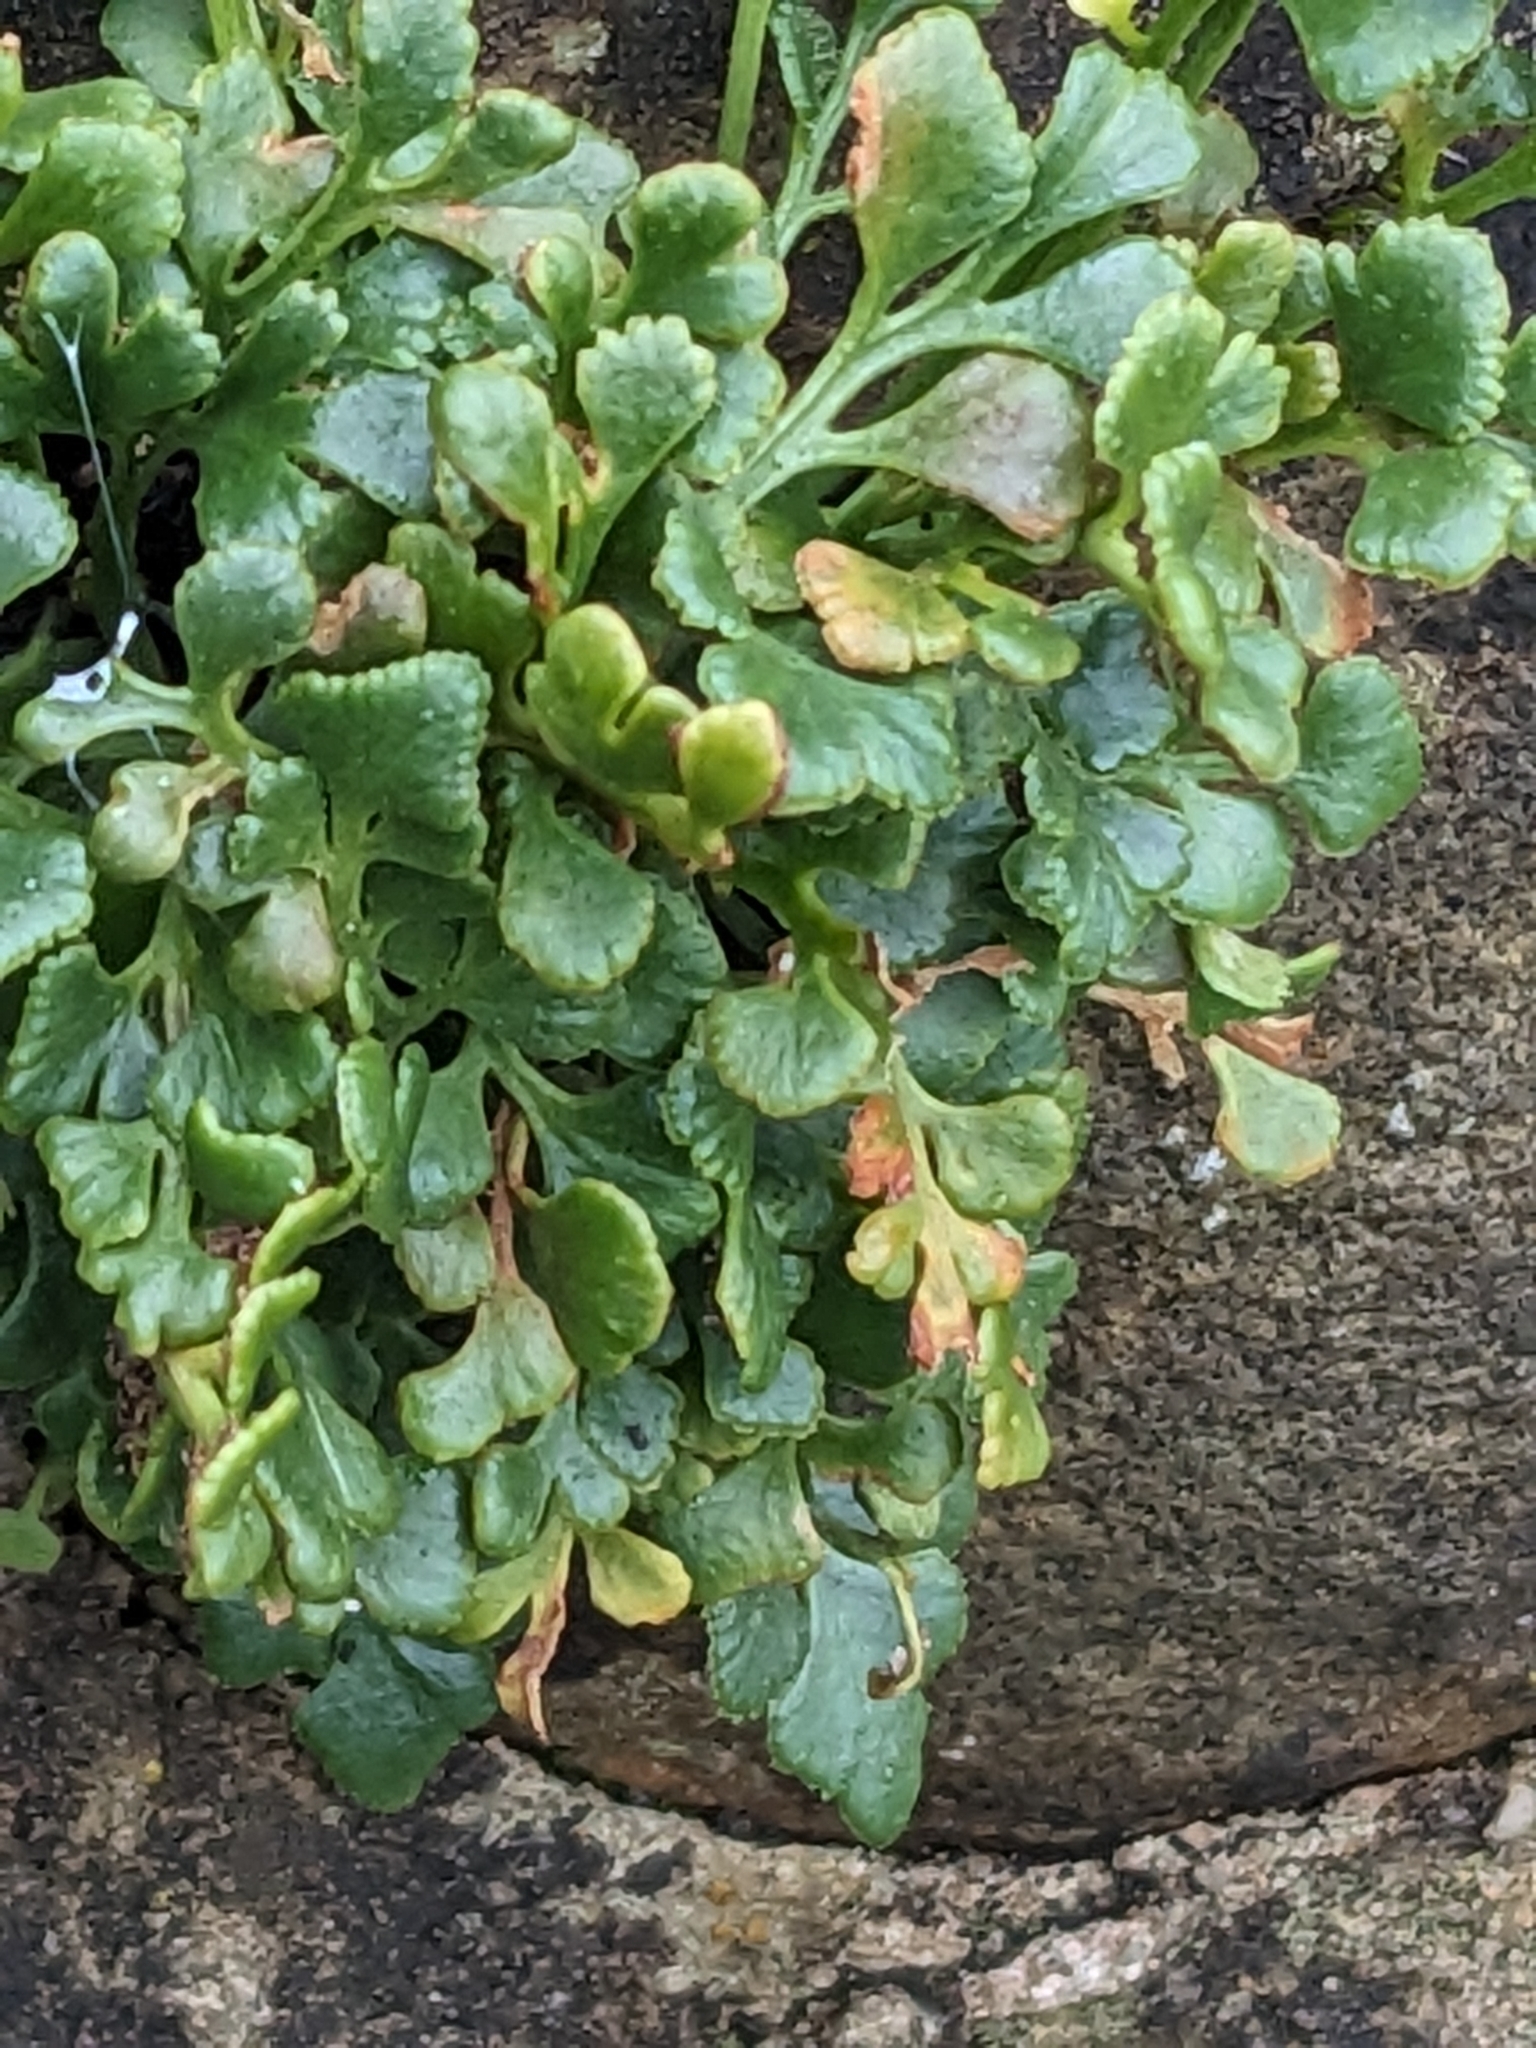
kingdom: Plantae
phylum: Tracheophyta
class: Polypodiopsida
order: Polypodiales
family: Aspleniaceae
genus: Asplenium
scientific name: Asplenium ruta-muraria
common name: Wall-rue
